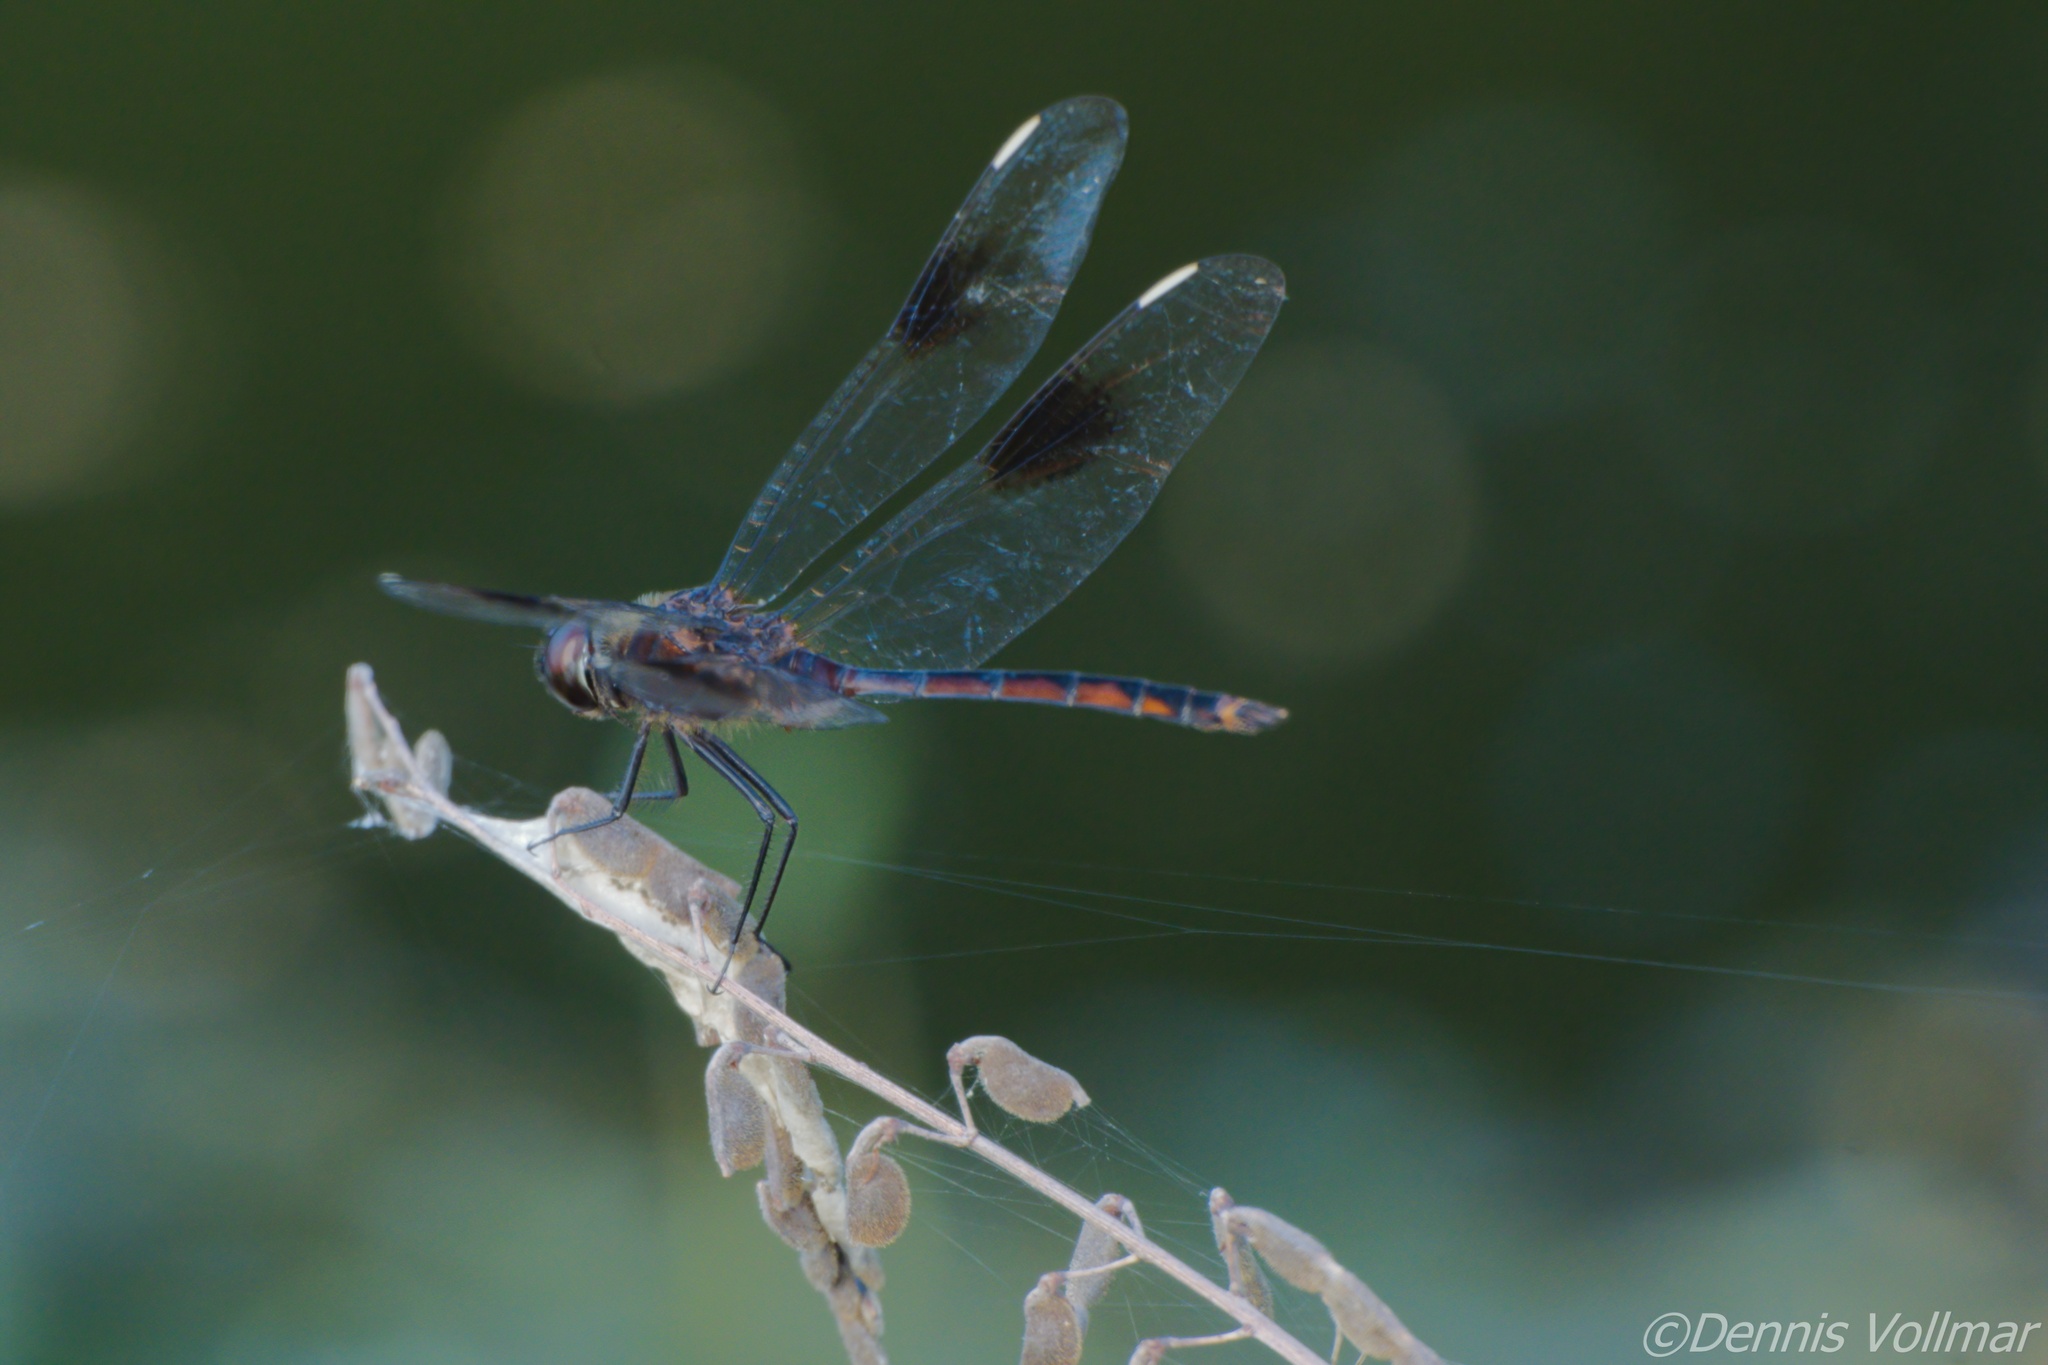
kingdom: Animalia
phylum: Arthropoda
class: Insecta
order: Odonata
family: Libellulidae
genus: Brachymesia
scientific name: Brachymesia gravida
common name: Four-spotted pennant
